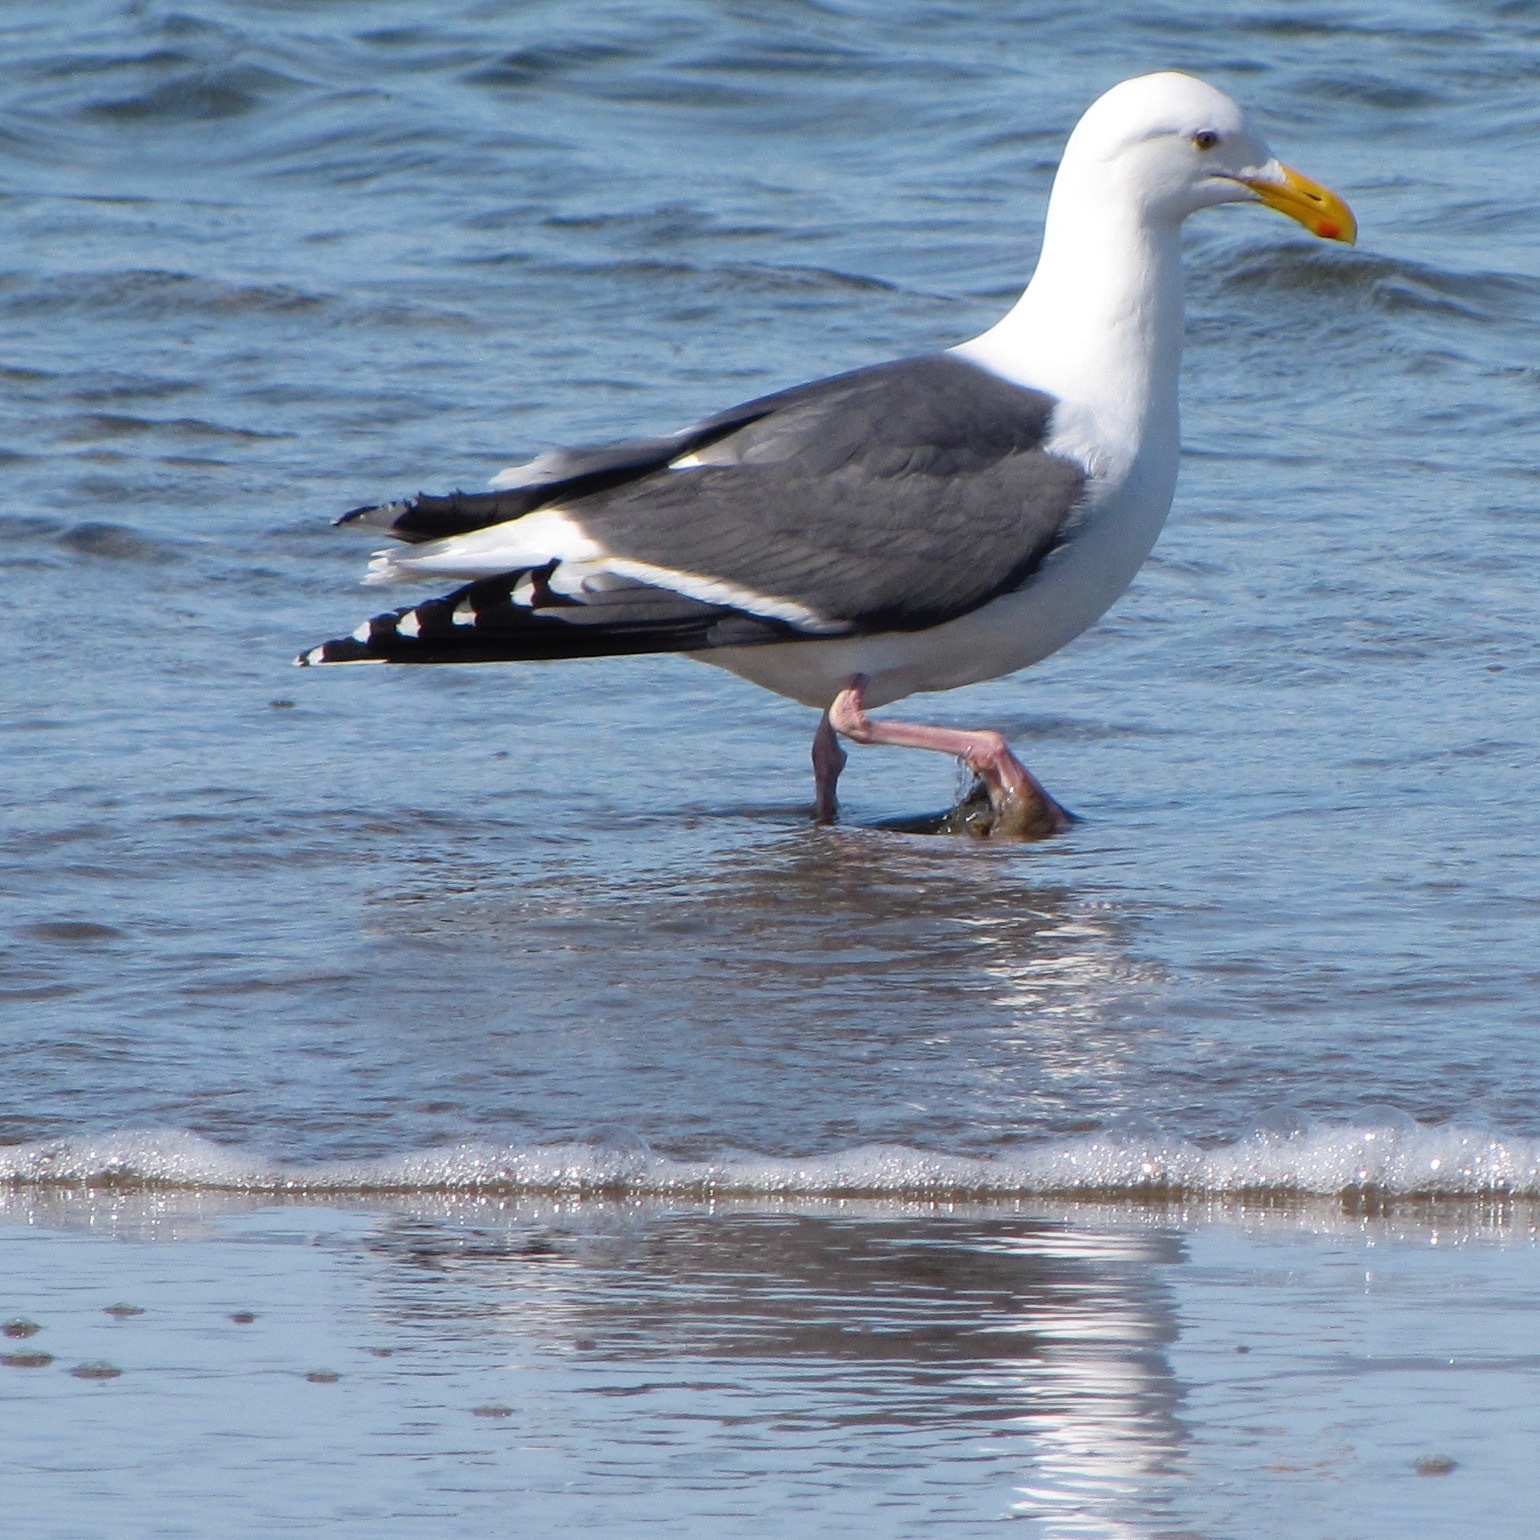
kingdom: Animalia
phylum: Chordata
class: Aves
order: Charadriiformes
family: Laridae
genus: Larus
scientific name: Larus occidentalis
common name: Western gull
